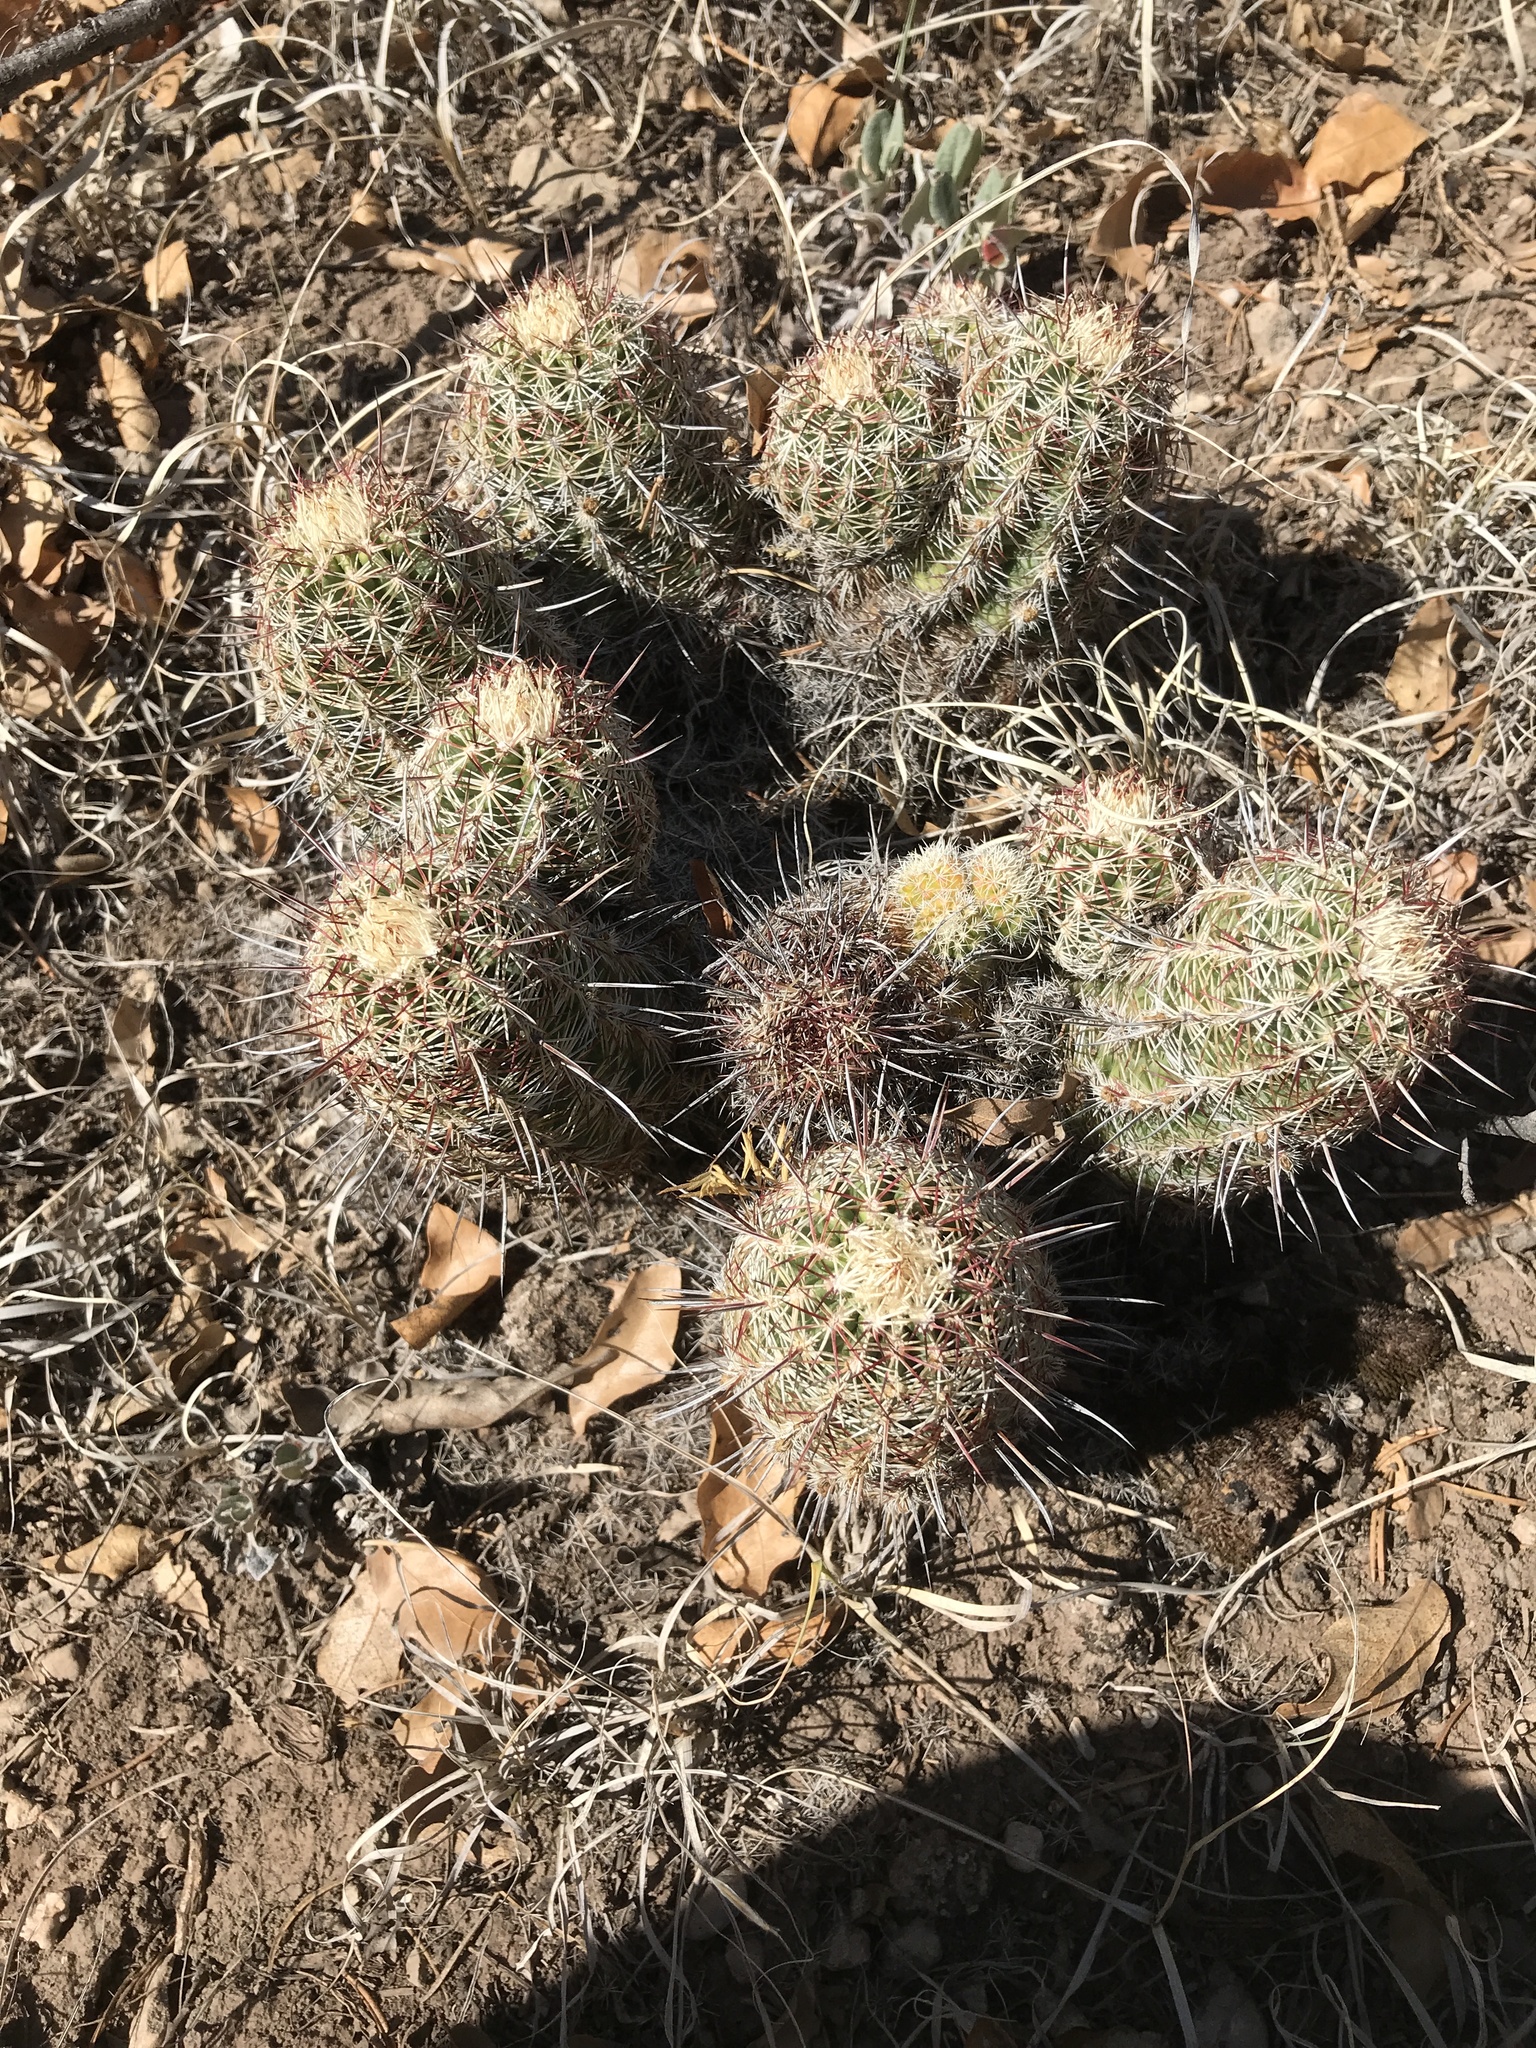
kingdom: Plantae
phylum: Tracheophyta
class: Magnoliopsida
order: Caryophyllales
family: Cactaceae
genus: Echinocereus
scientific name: Echinocereus viridiflorus
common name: Nylon hedgehog cactus
